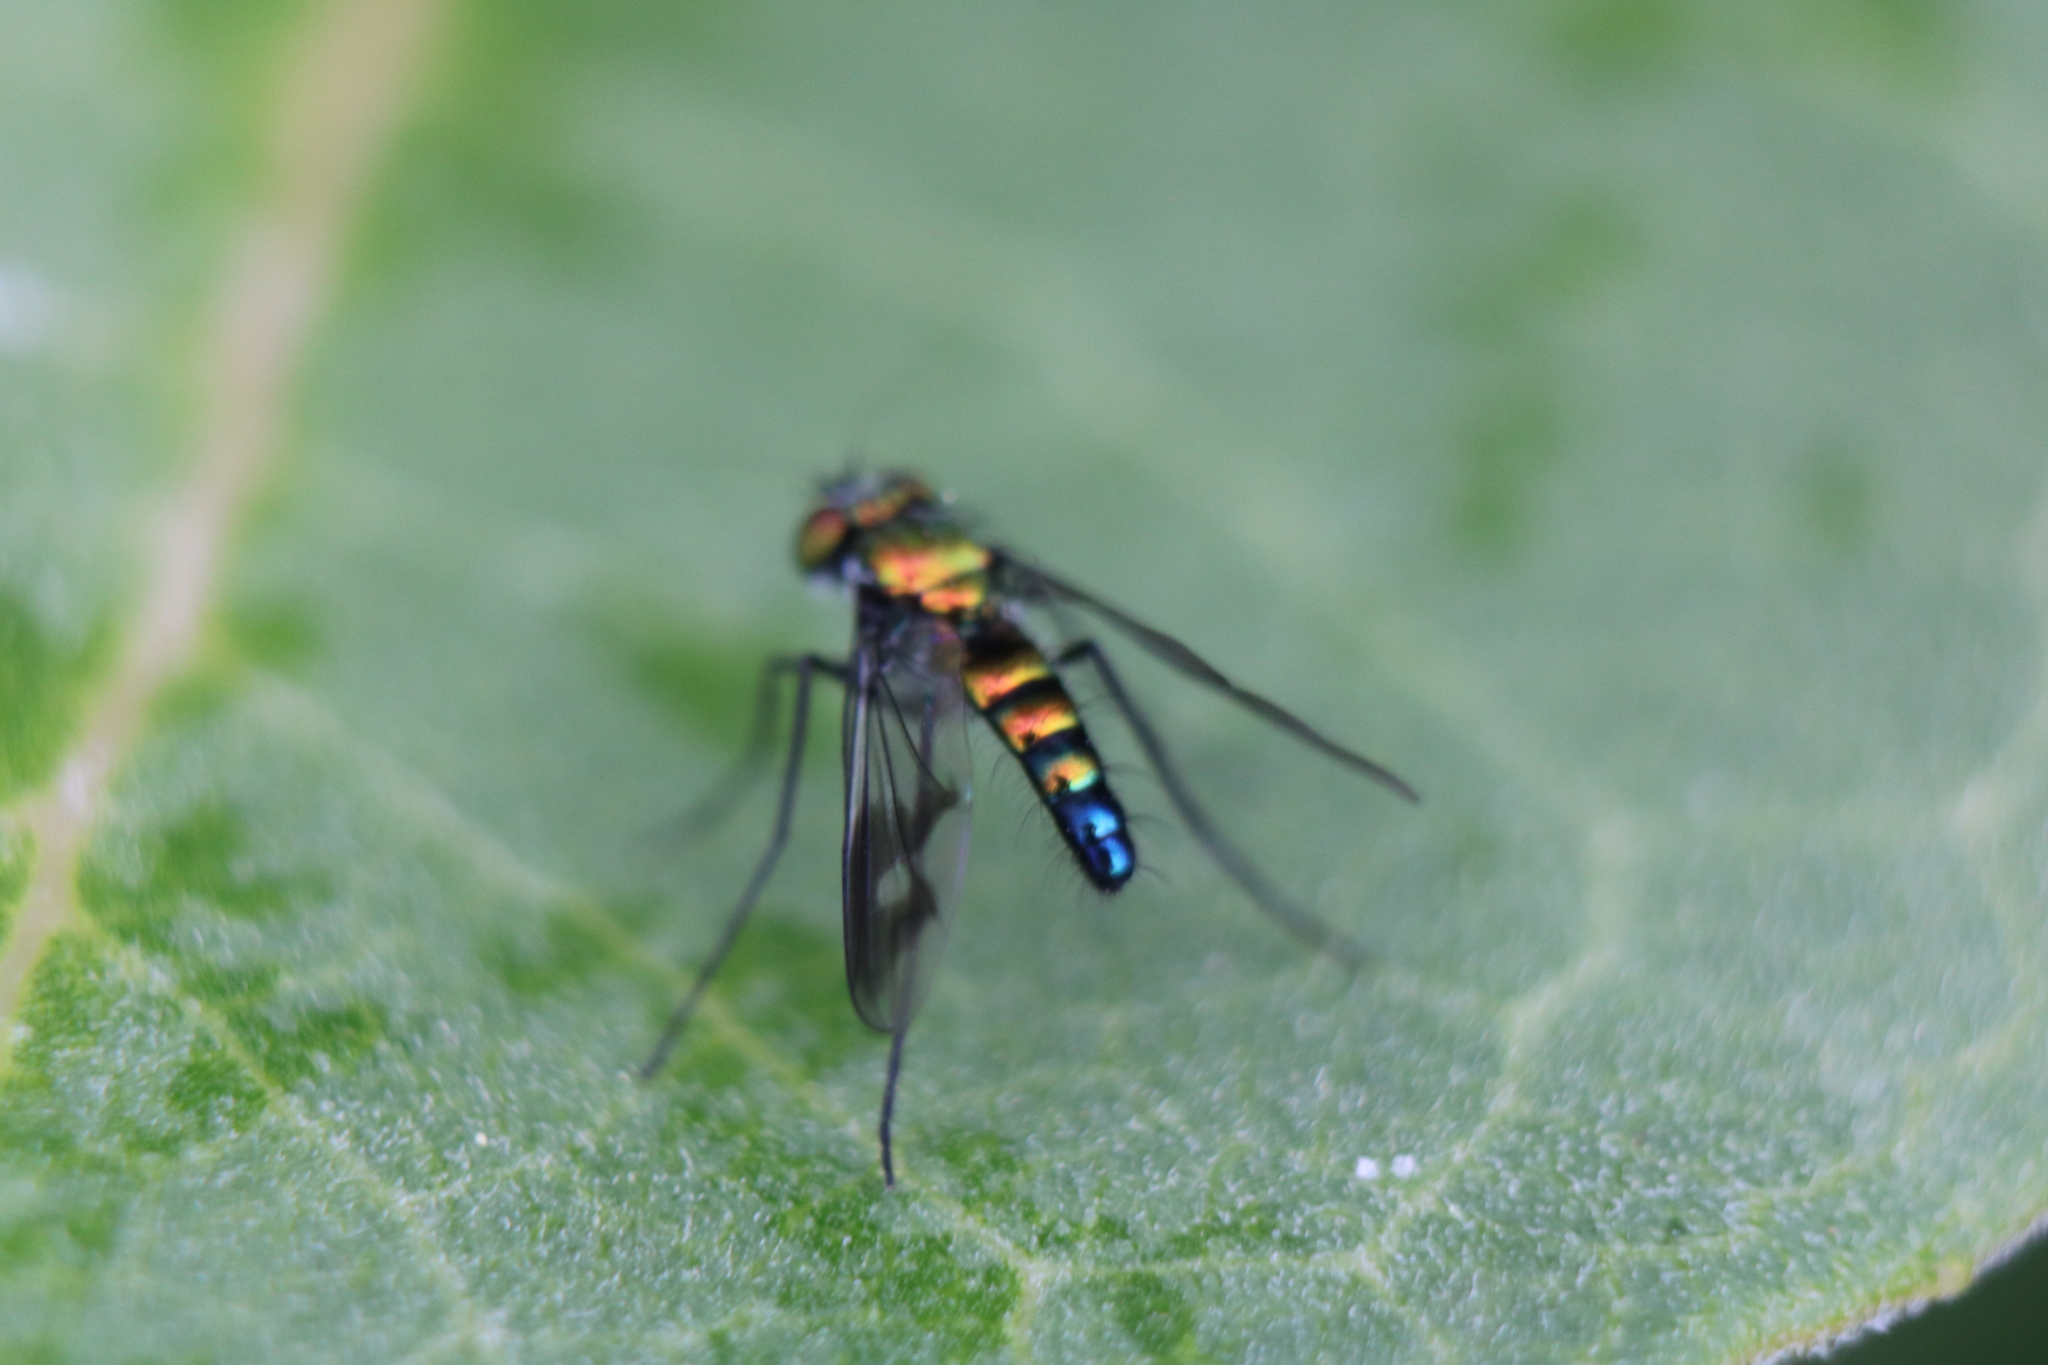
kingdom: Animalia
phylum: Arthropoda
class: Insecta
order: Diptera
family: Dolichopodidae
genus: Condylostylus
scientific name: Condylostylus patibulatus
